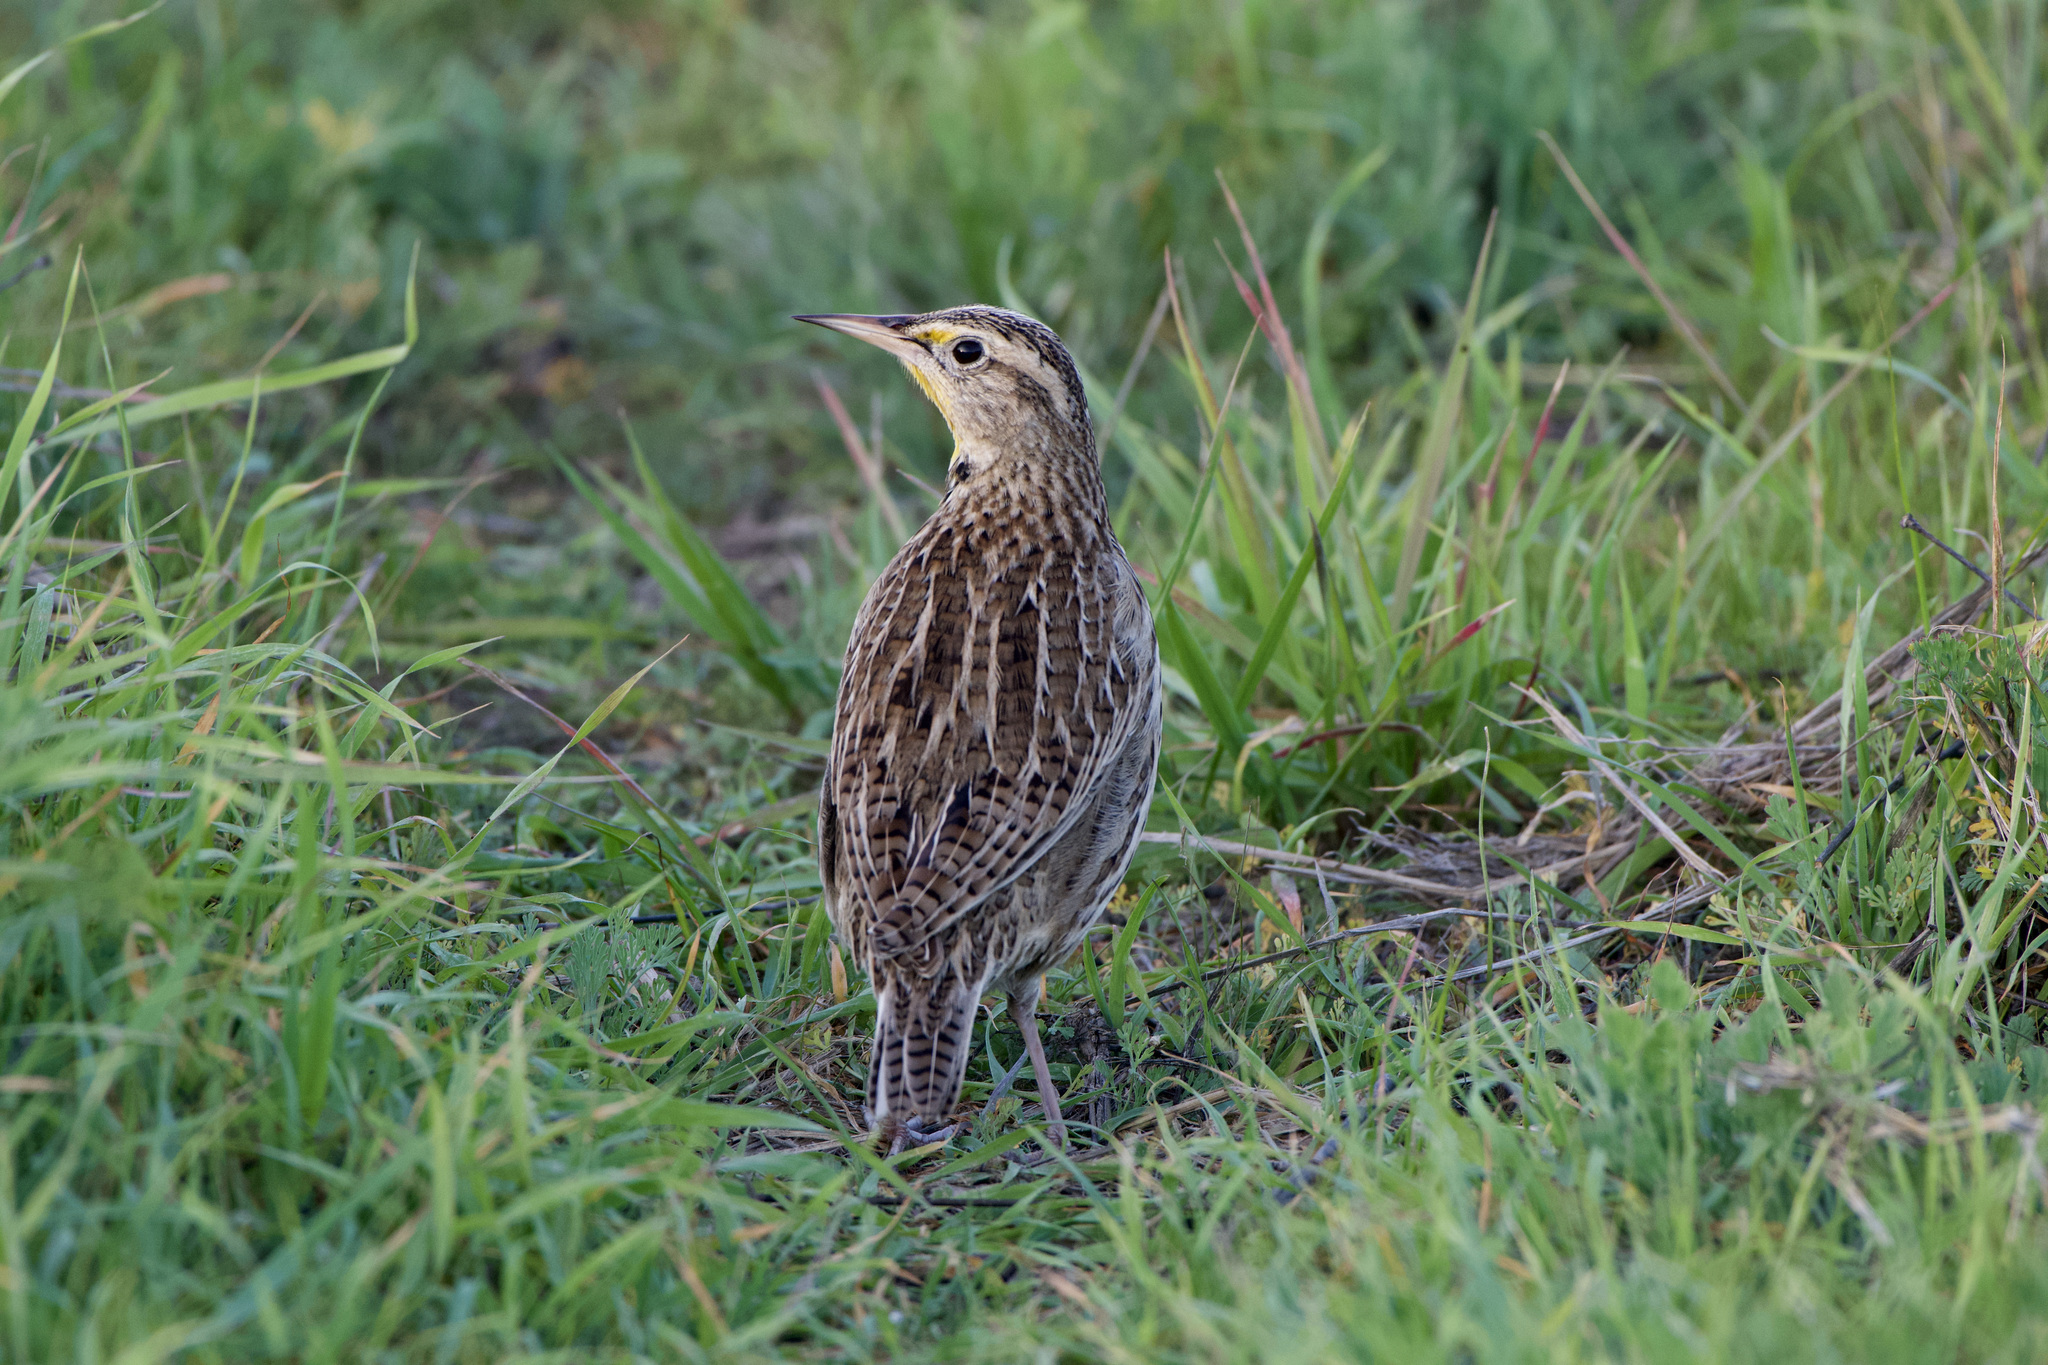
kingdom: Animalia
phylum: Chordata
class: Aves
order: Passeriformes
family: Icteridae
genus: Sturnella
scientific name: Sturnella neglecta
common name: Western meadowlark
